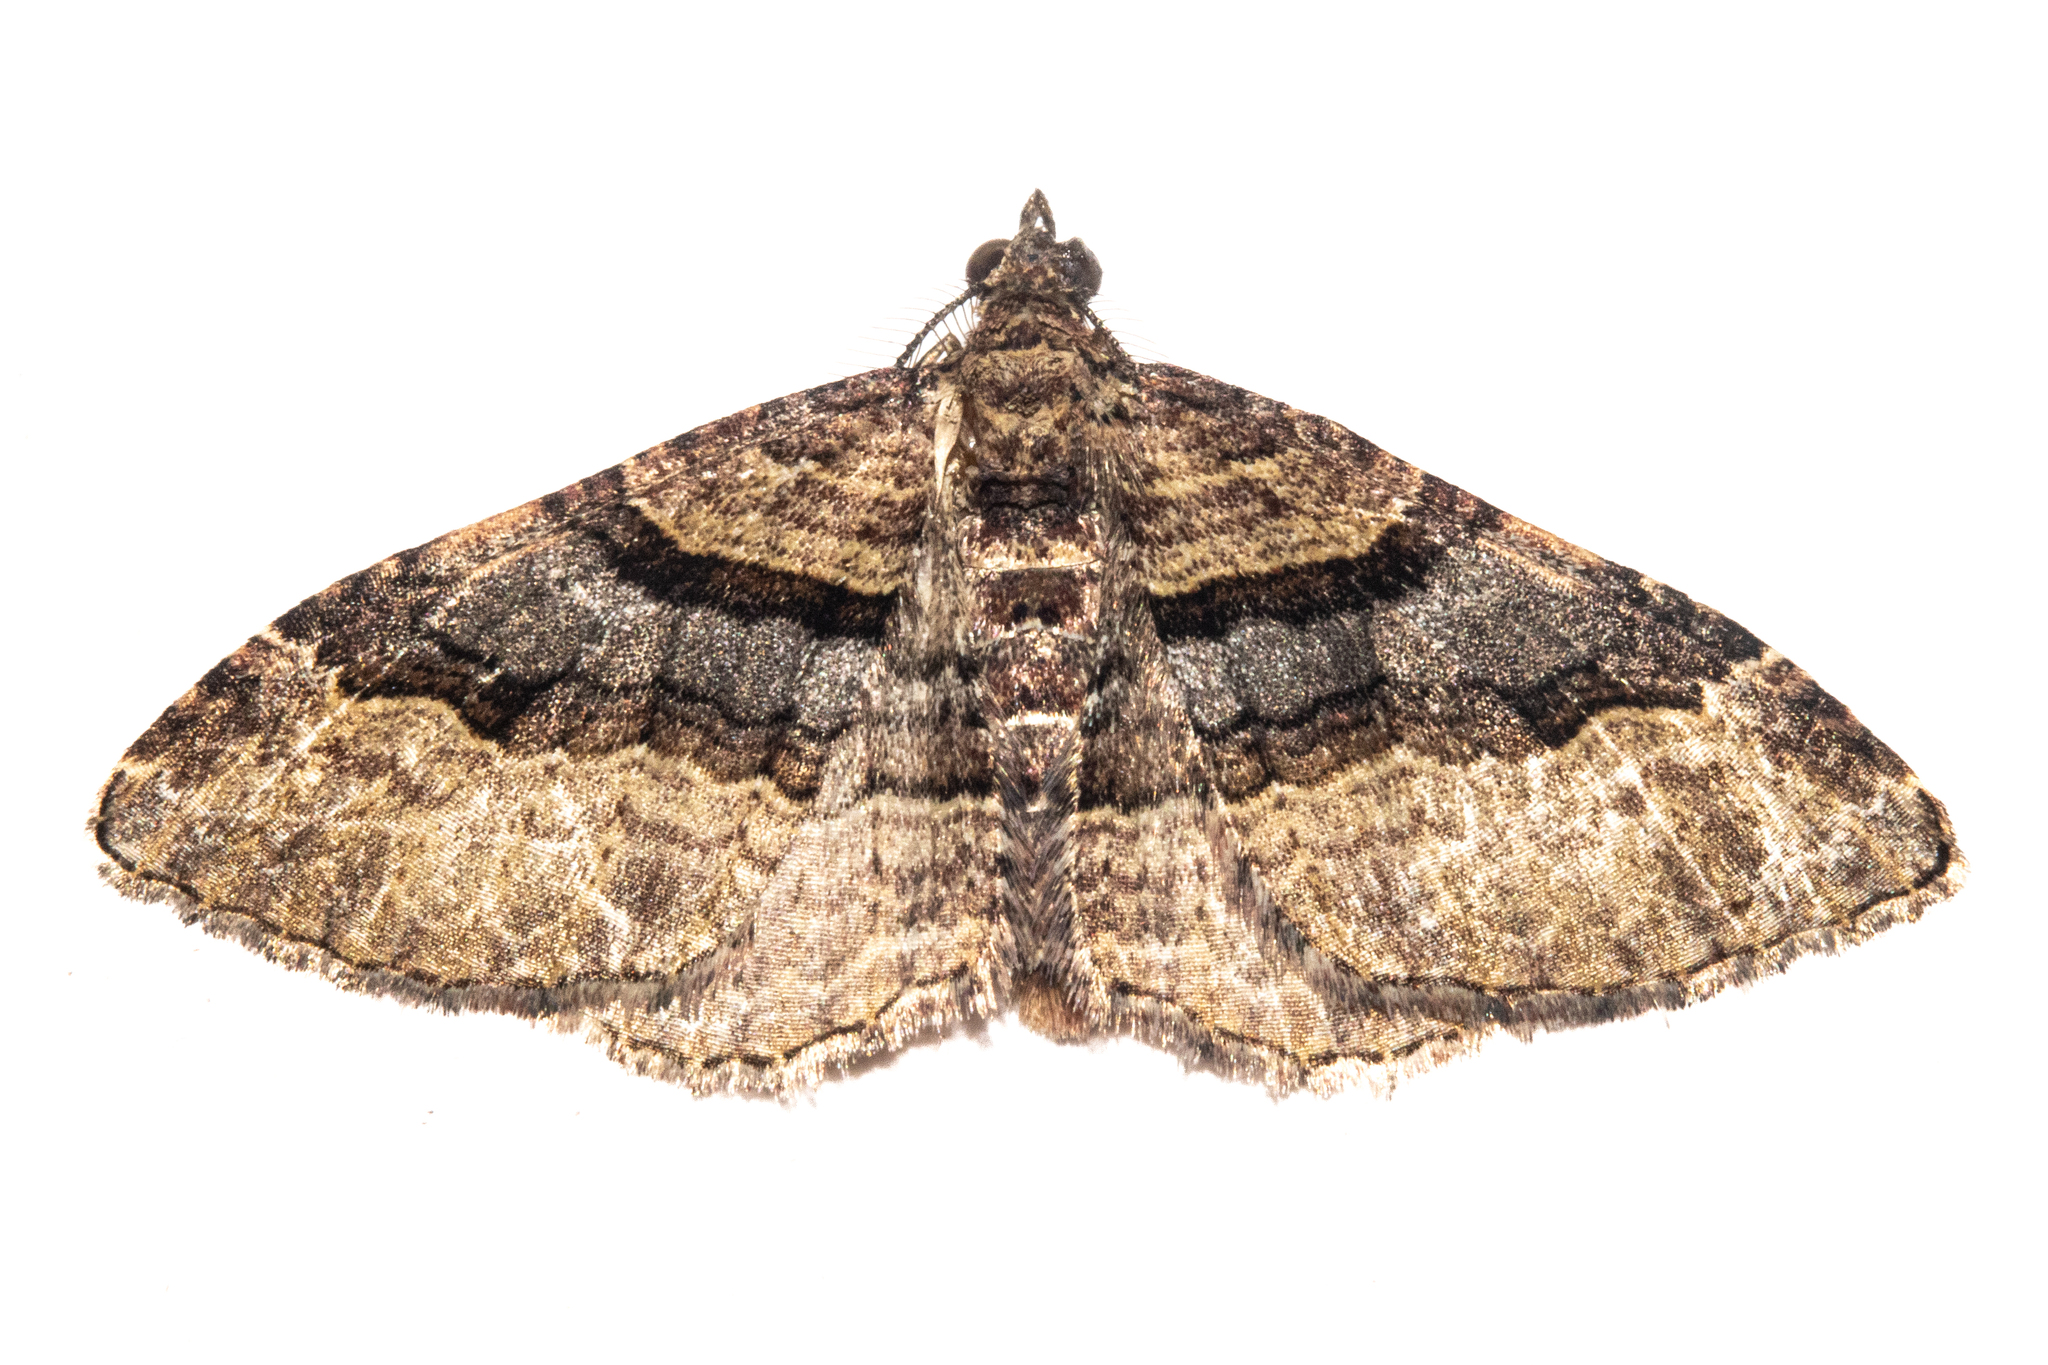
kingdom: Animalia
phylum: Arthropoda
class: Insecta
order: Lepidoptera
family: Geometridae
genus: Epyaxa
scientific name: Epyaxa lucidata
